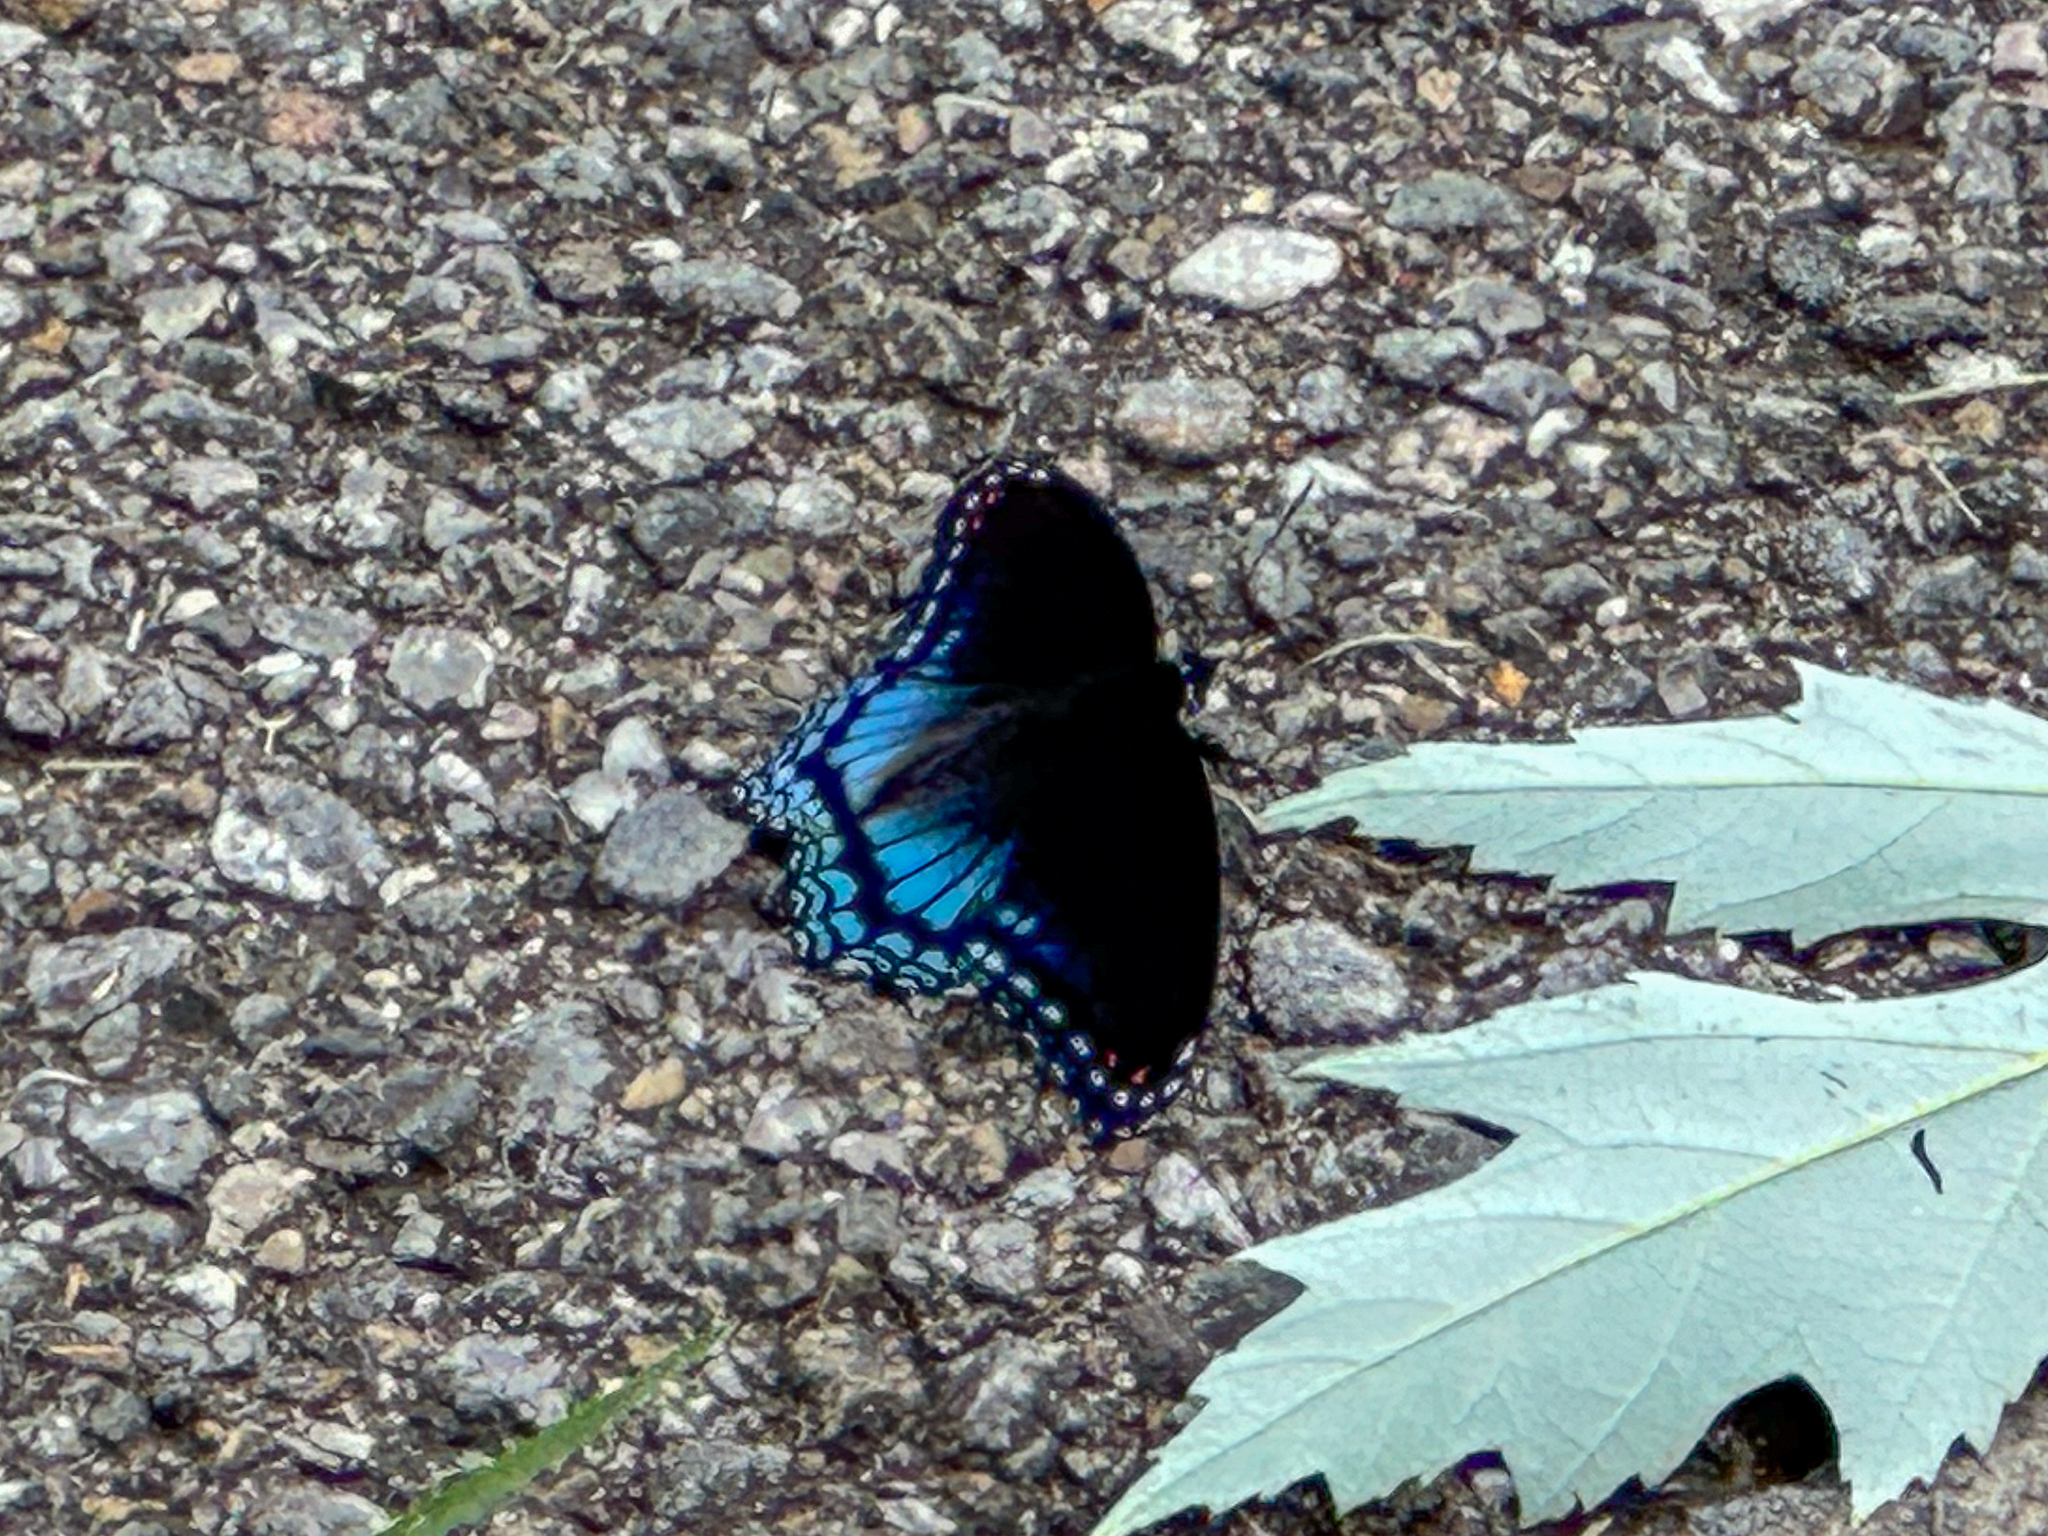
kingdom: Animalia
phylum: Arthropoda
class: Insecta
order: Lepidoptera
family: Nymphalidae
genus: Limenitis
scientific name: Limenitis astyanax
